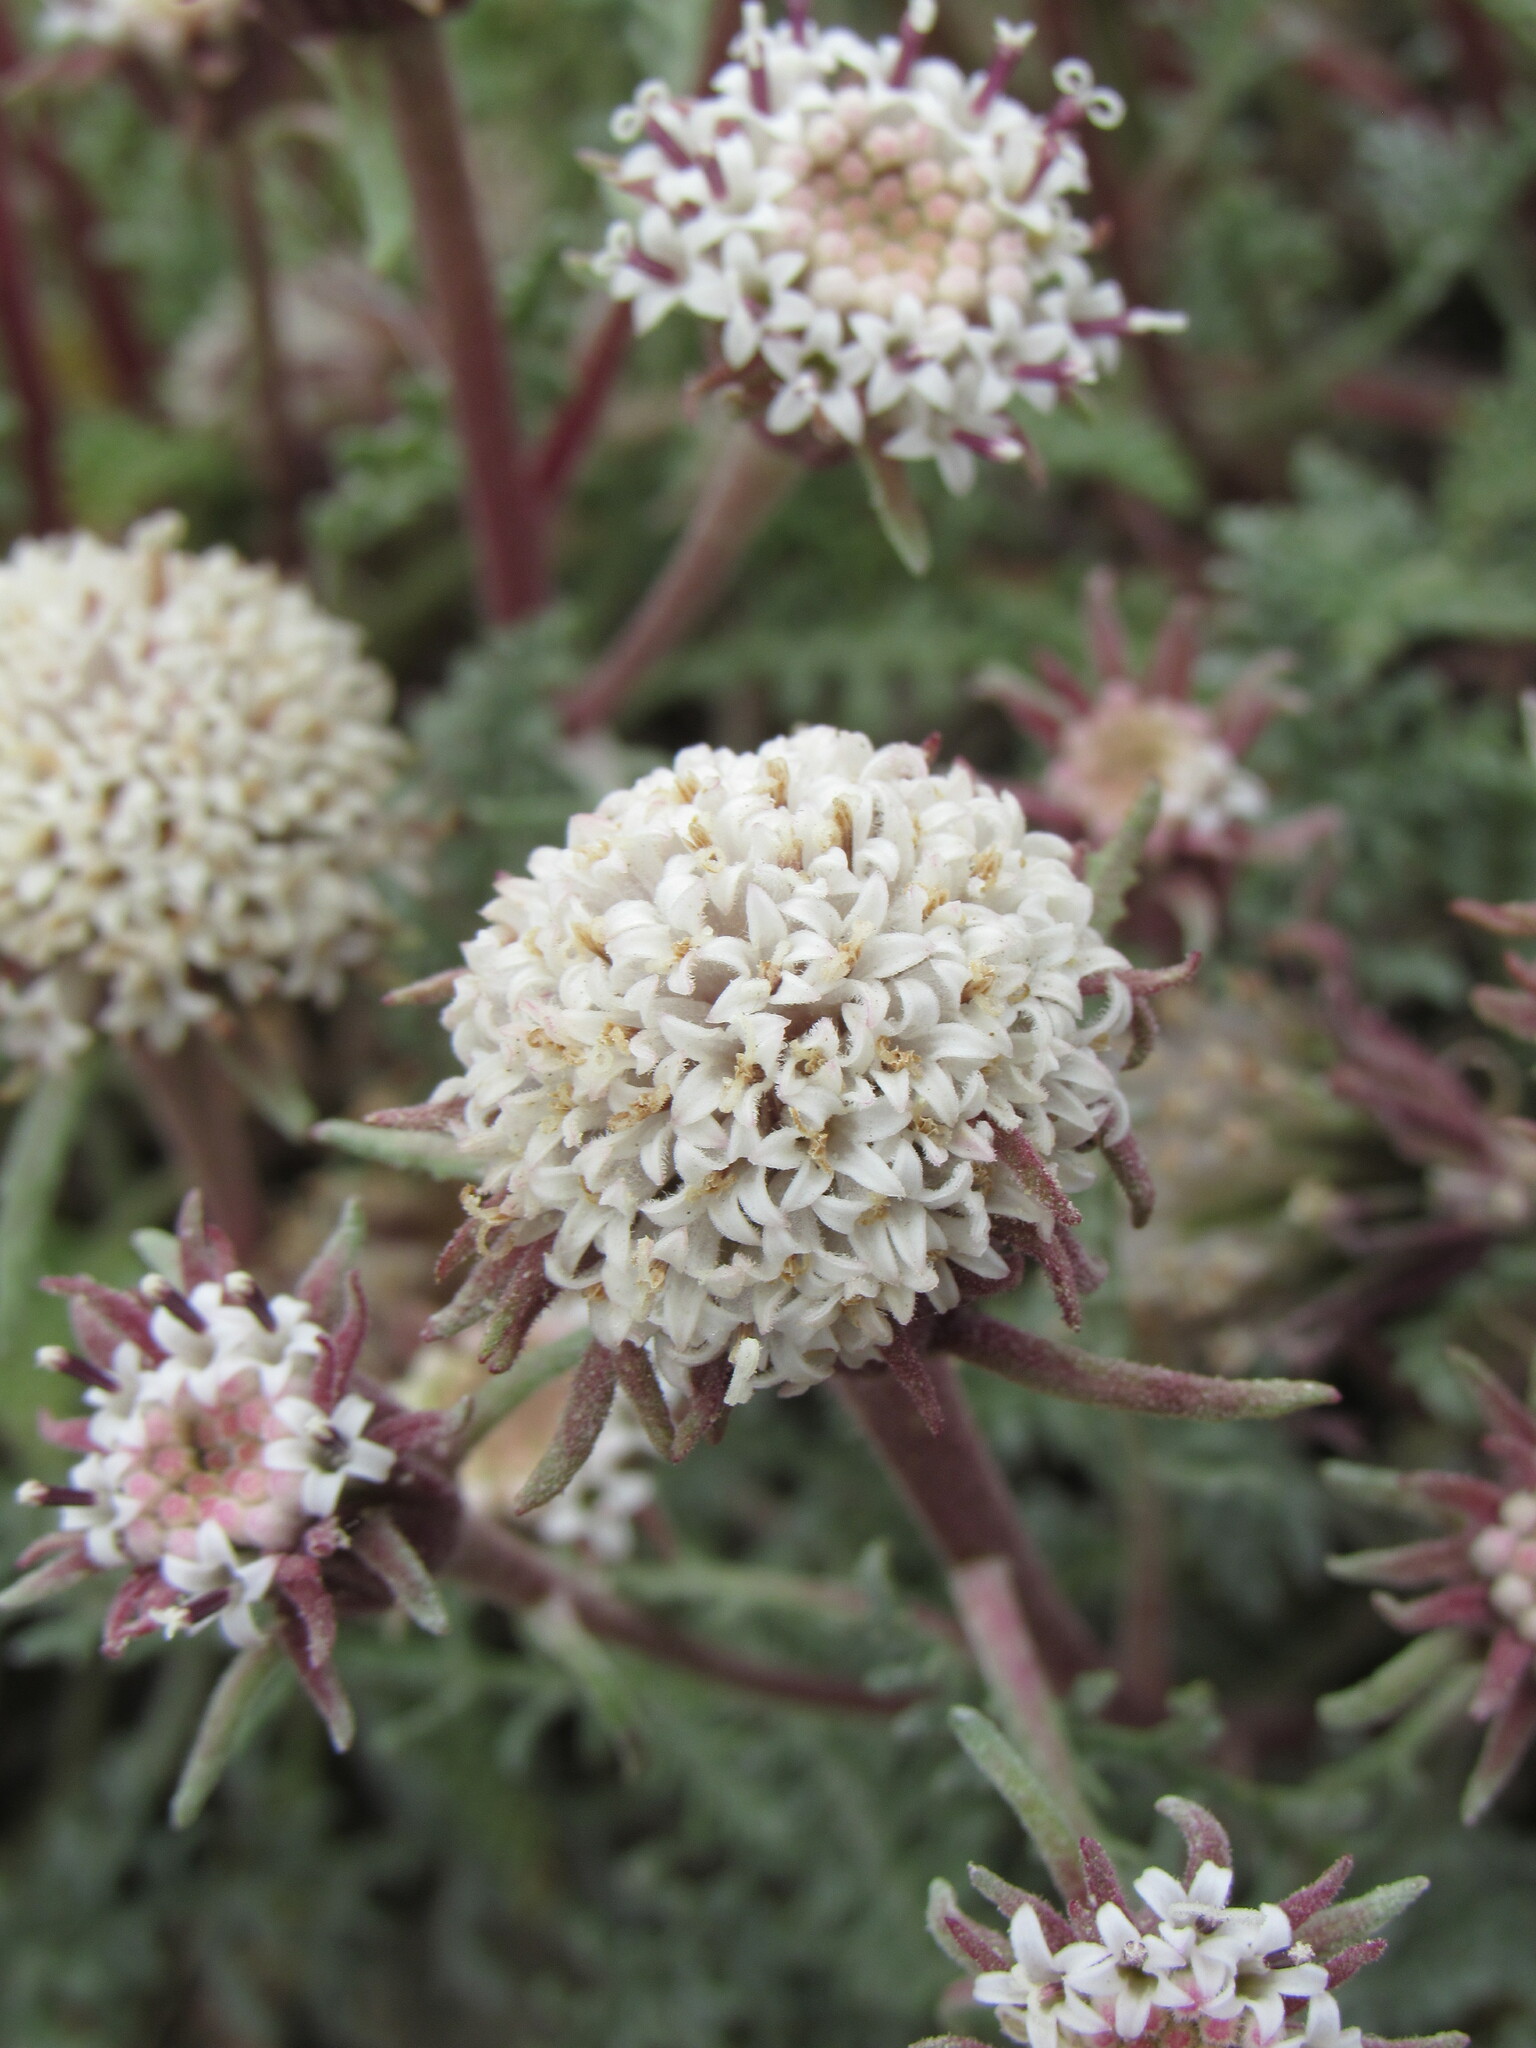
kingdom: Plantae
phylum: Tracheophyta
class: Magnoliopsida
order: Asterales
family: Asteraceae
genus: Chaenactis
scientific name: Chaenactis douglasii
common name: Hoary pincushion
